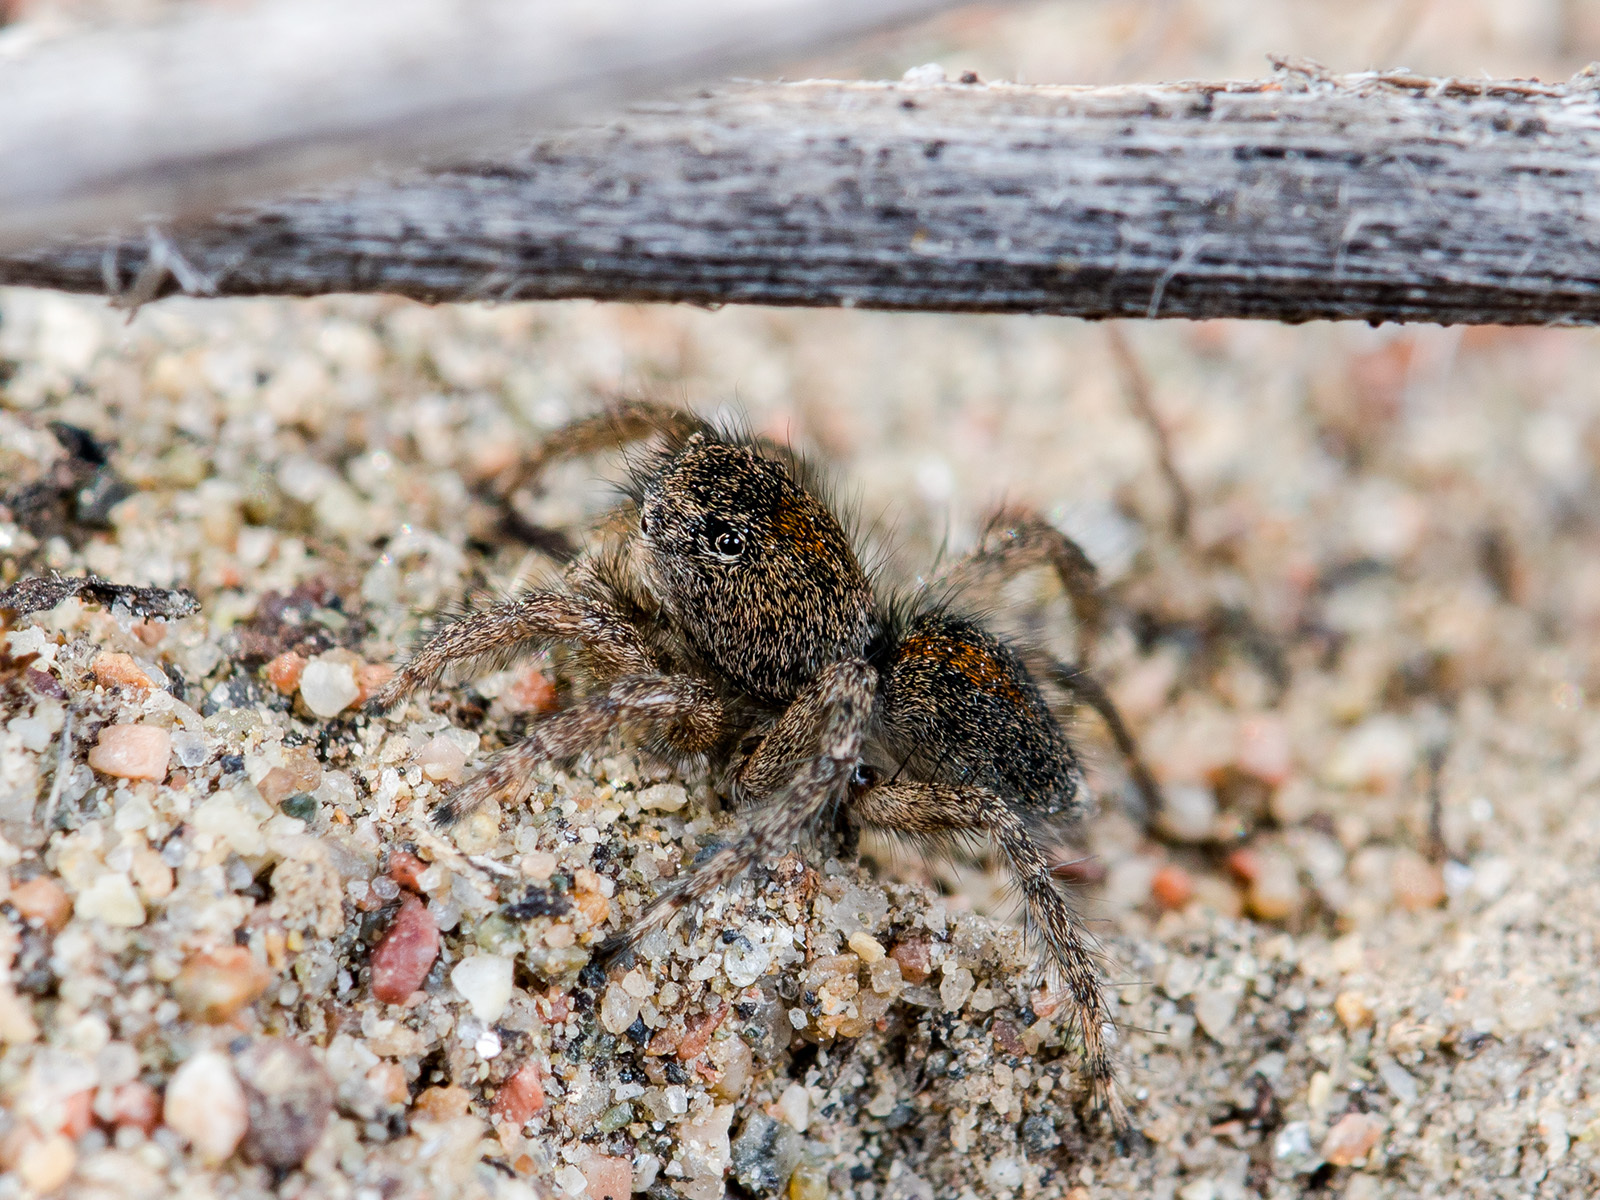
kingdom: Animalia
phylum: Arthropoda
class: Arachnida
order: Araneae
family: Salticidae
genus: Aelurillus
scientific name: Aelurillus dubatolovi
